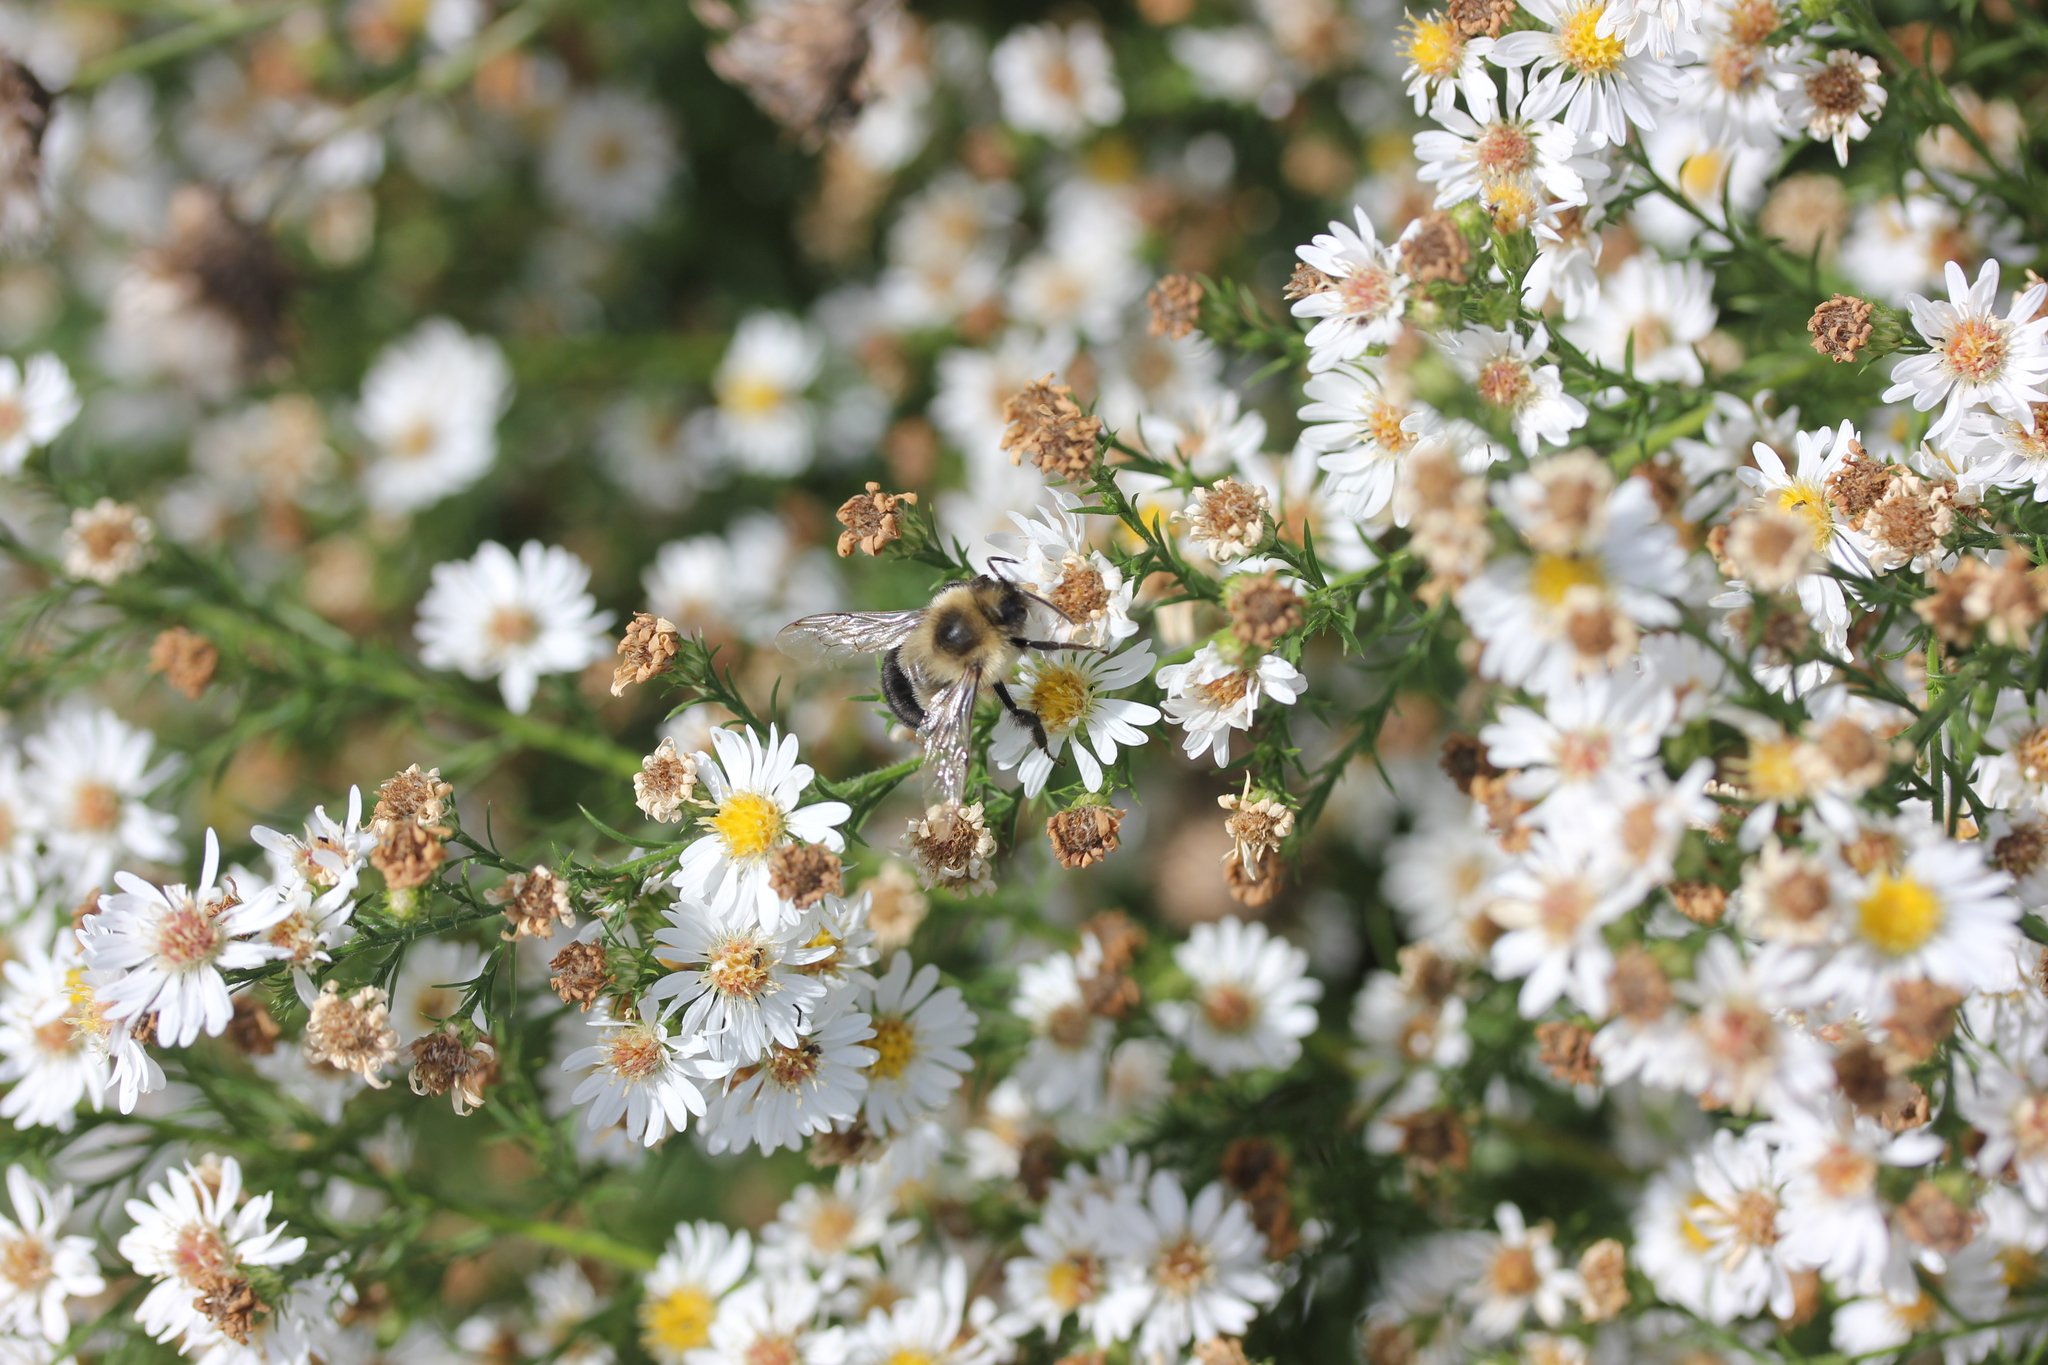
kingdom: Plantae
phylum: Tracheophyta
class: Magnoliopsida
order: Asterales
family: Asteraceae
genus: Symphyotrichum
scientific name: Symphyotrichum pilosum
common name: Awl aster
